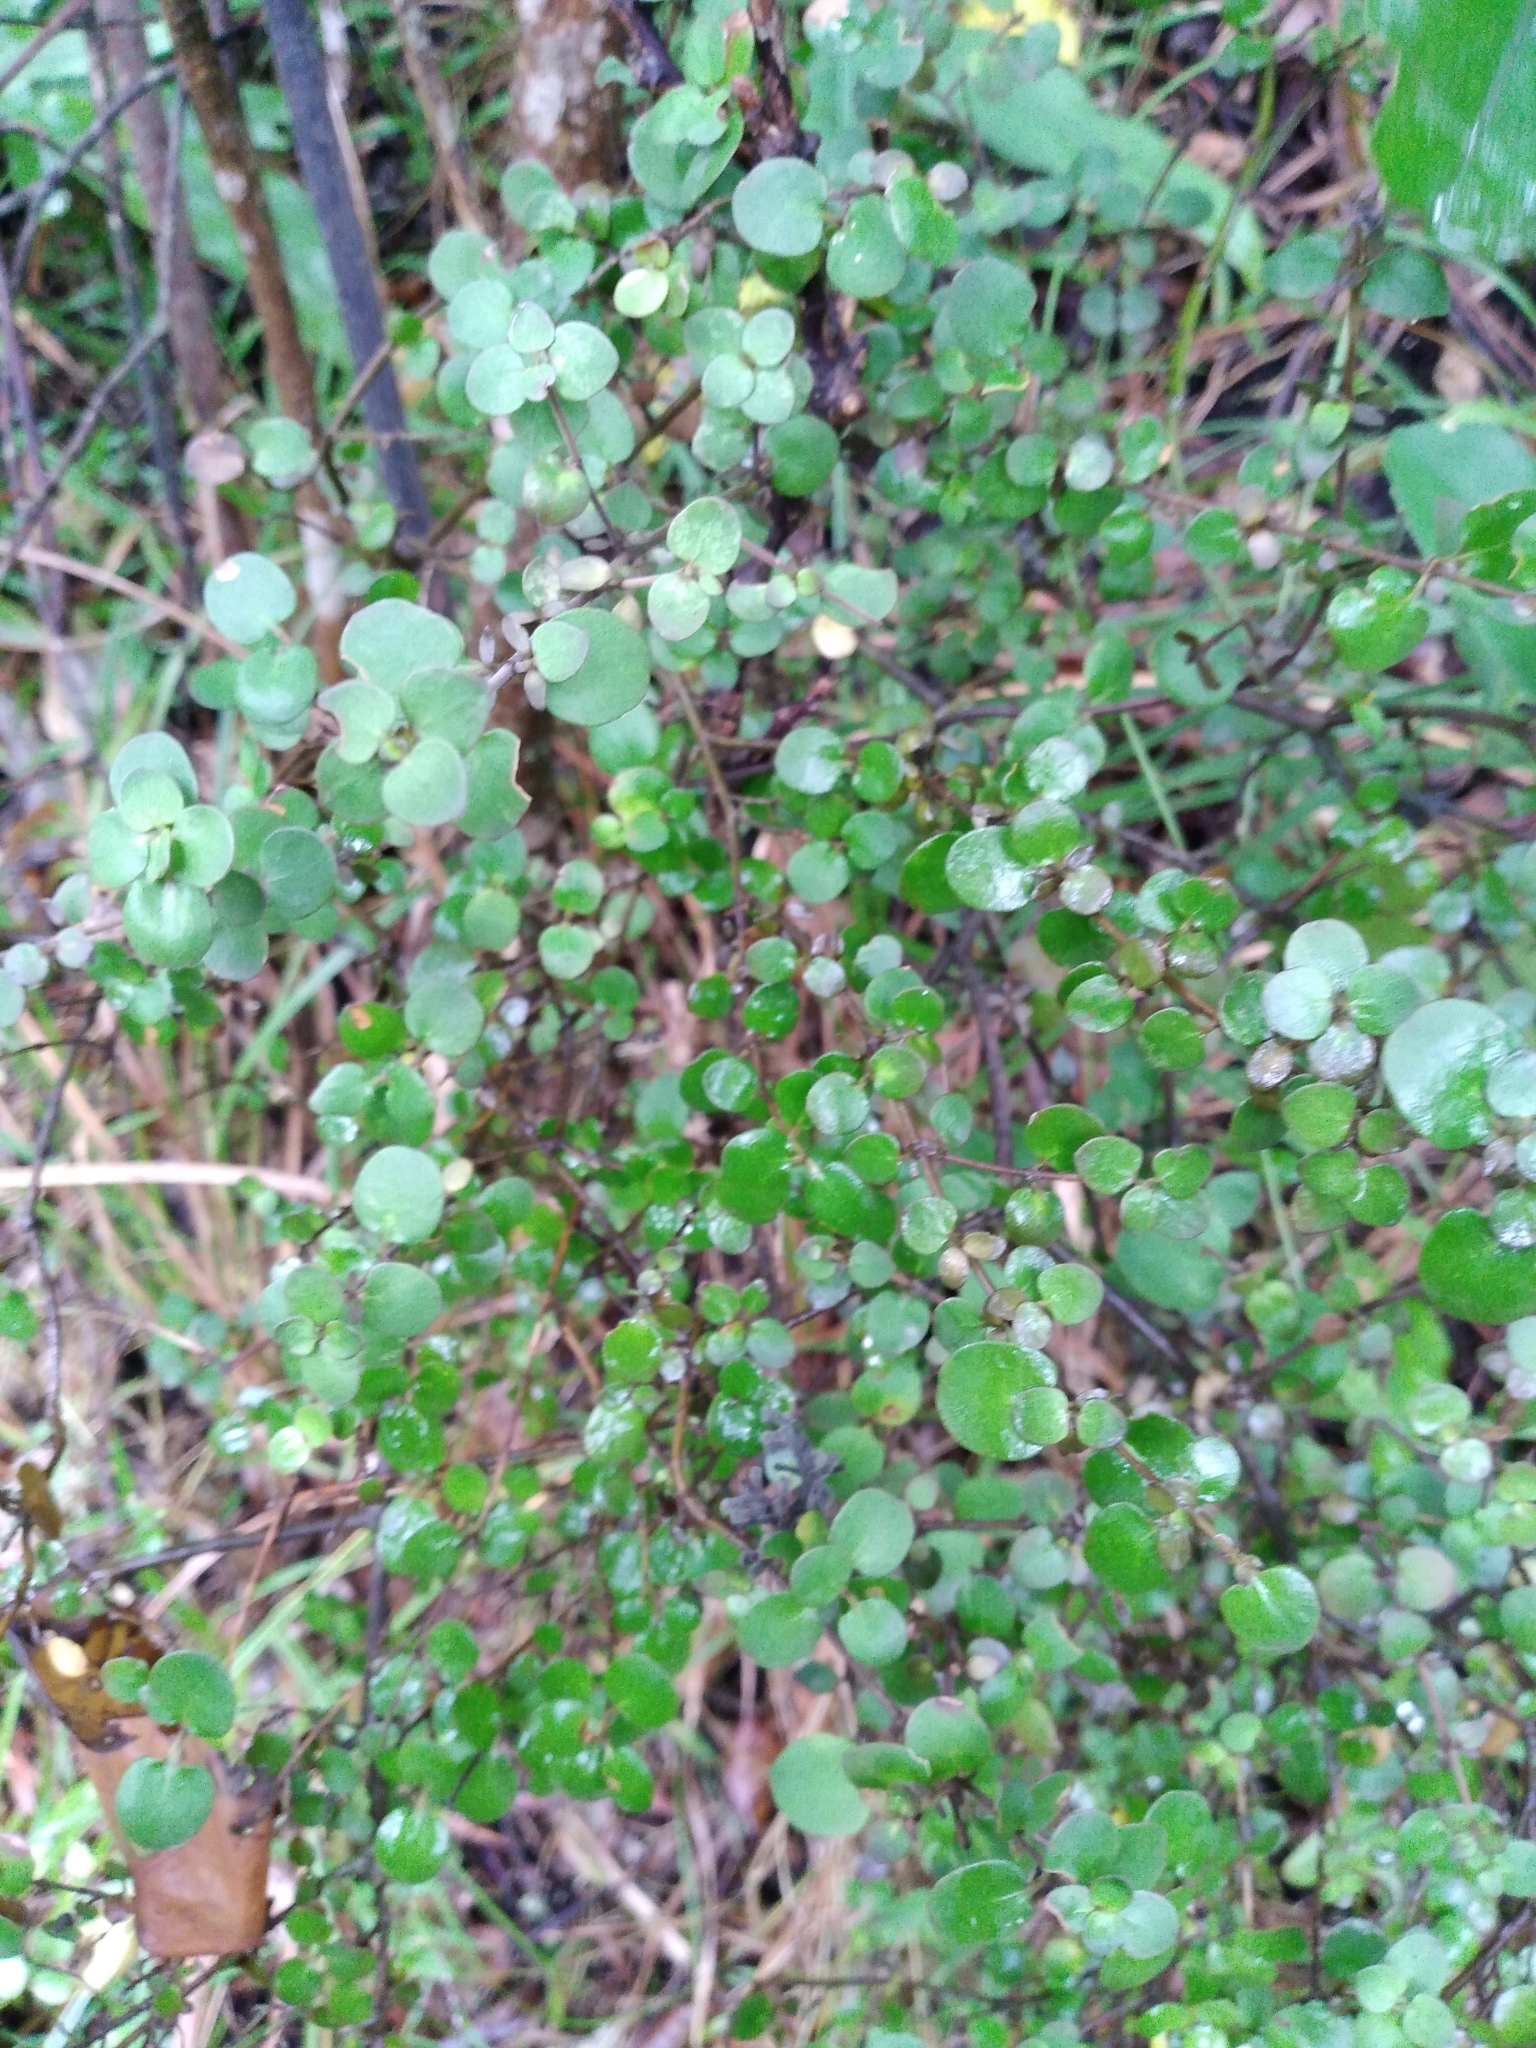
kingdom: Plantae
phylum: Tracheophyta
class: Magnoliopsida
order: Gentianales
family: Rubiaceae
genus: Coprosma
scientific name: Coprosma rhamnoides
